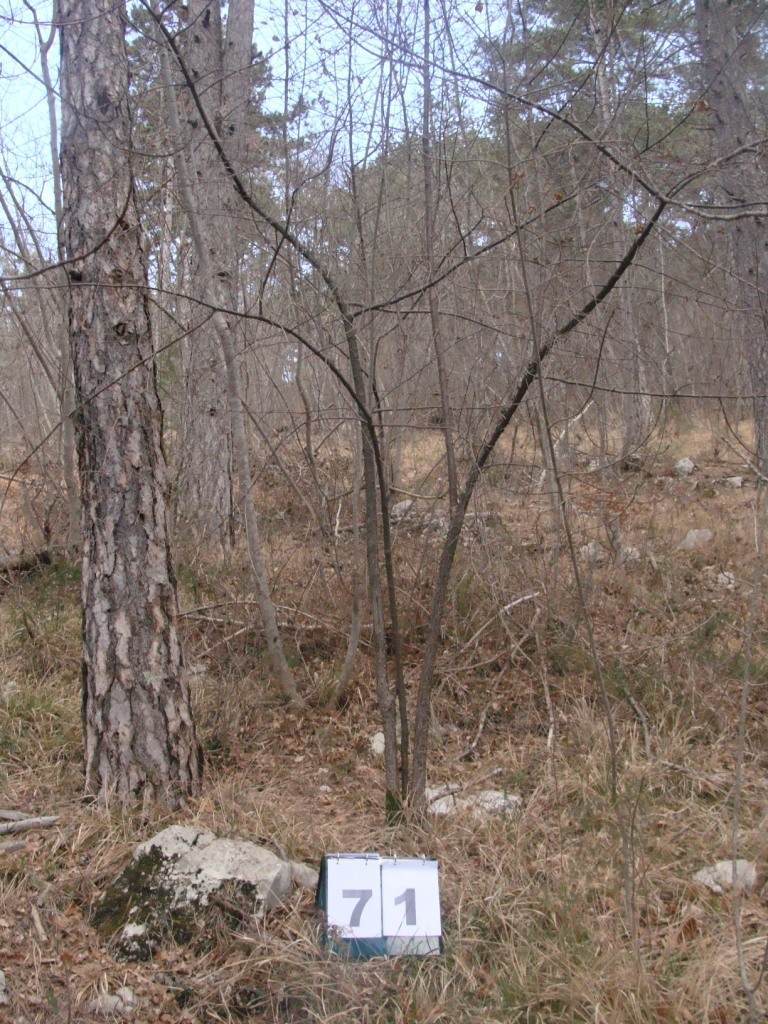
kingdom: Plantae
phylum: Tracheophyta
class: Magnoliopsida
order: Cornales
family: Cornaceae
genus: Cornus
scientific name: Cornus mas
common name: Cornelian-cherry
